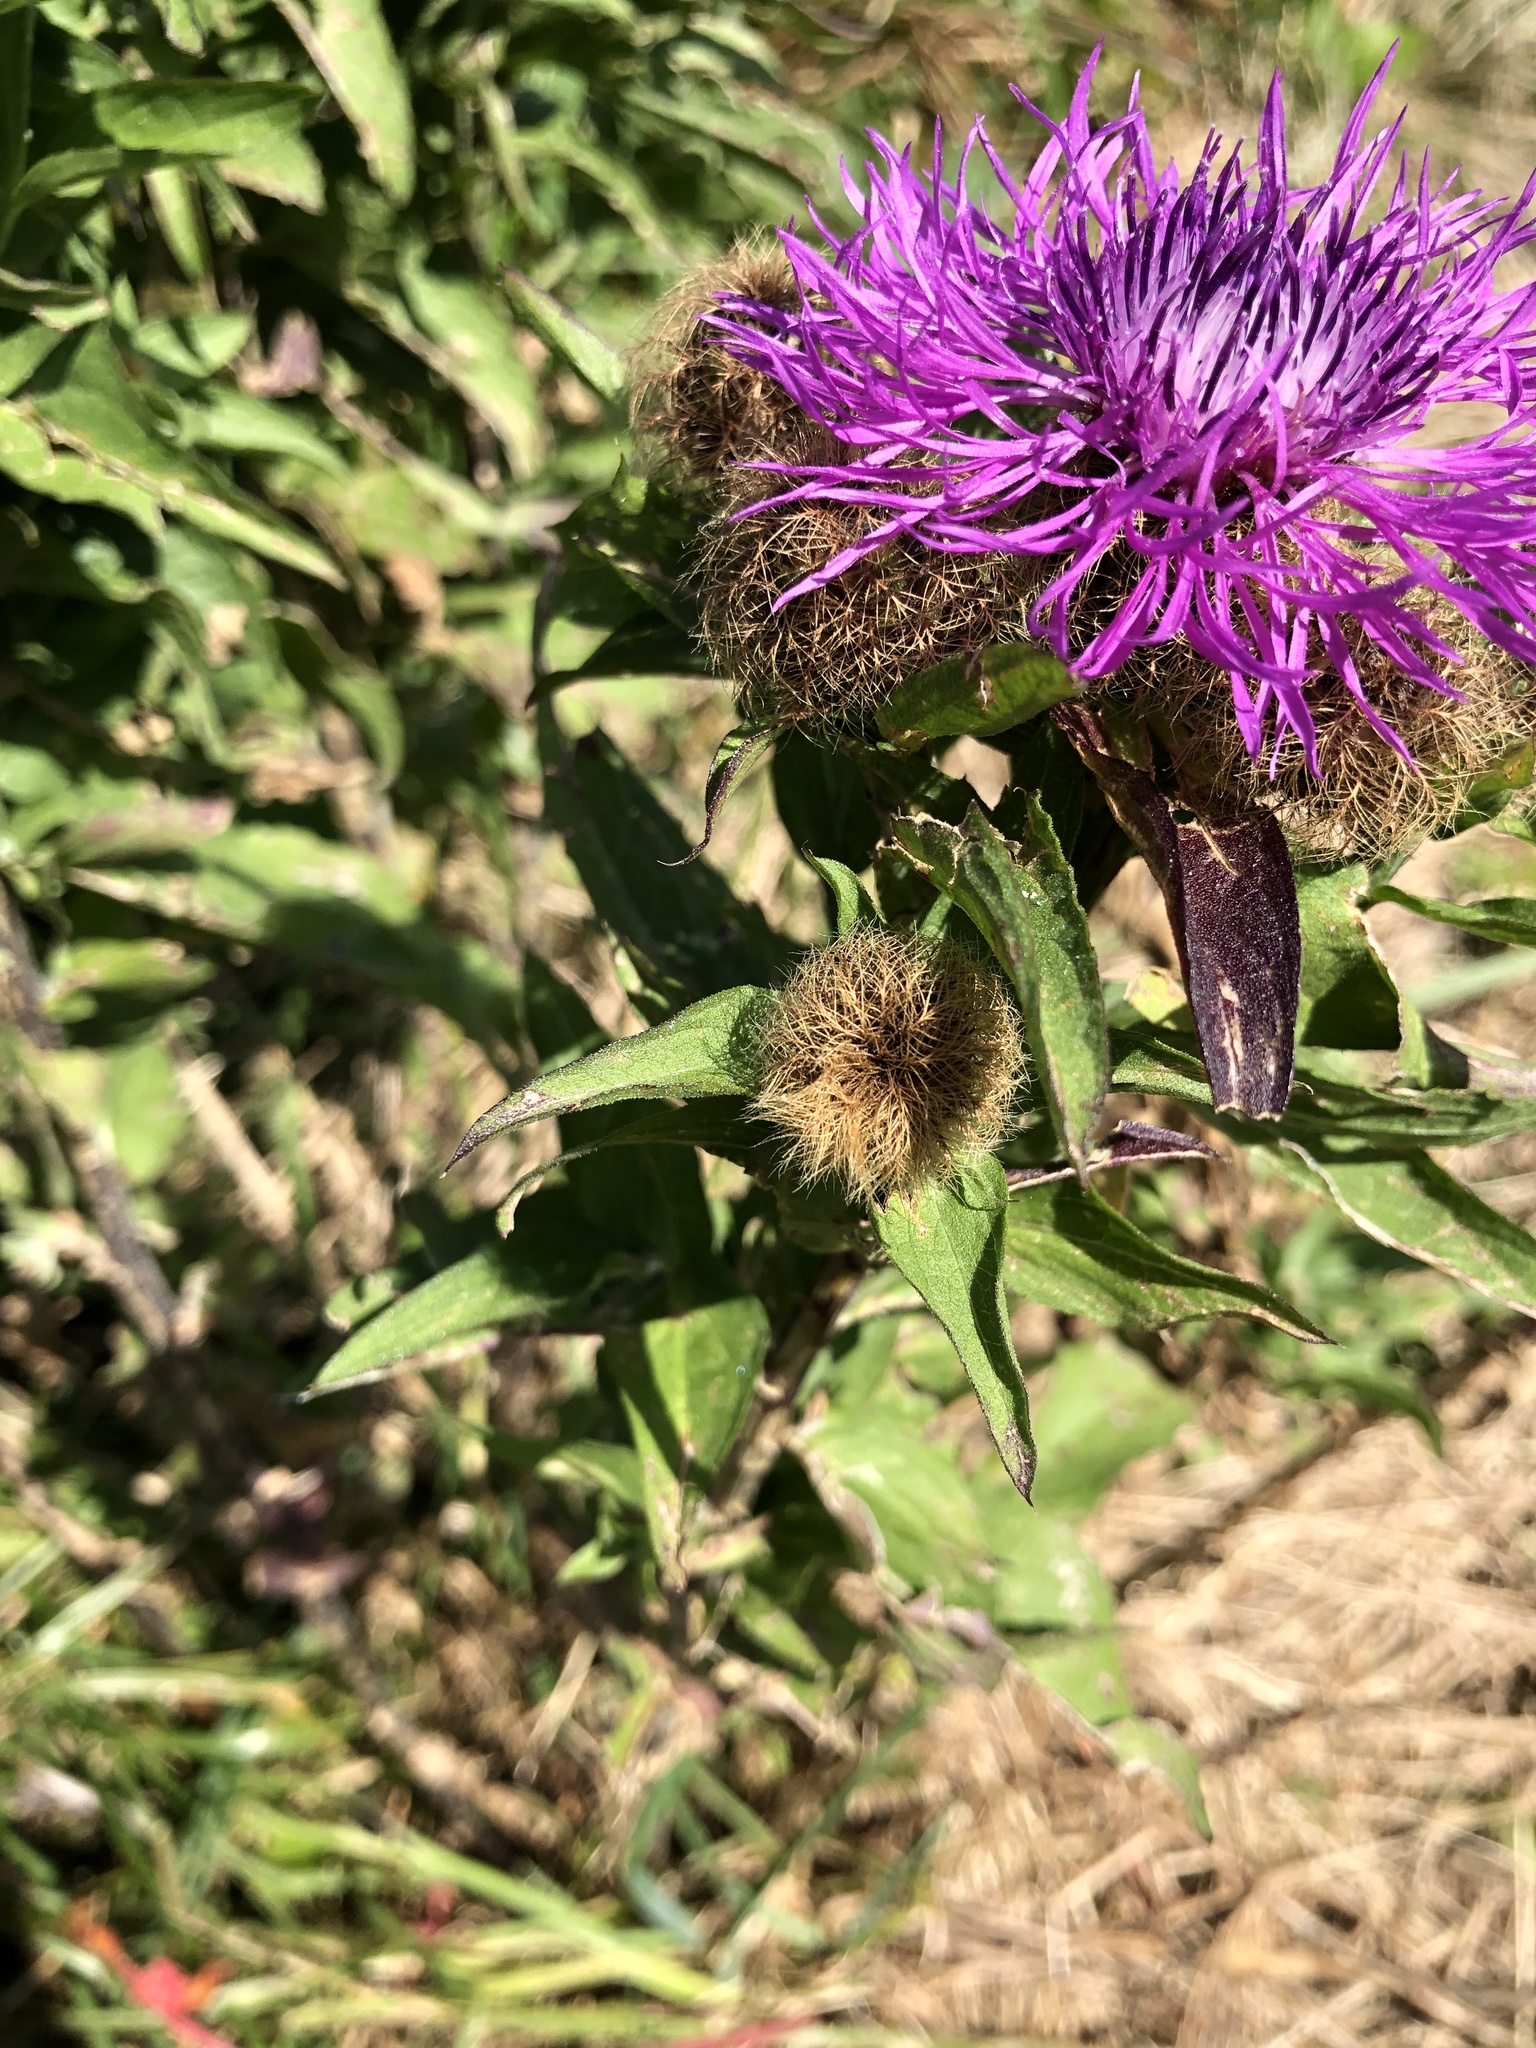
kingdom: Plantae
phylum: Tracheophyta
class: Magnoliopsida
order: Asterales
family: Asteraceae
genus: Centaurea
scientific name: Centaurea phrygia
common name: Wig knapweed
